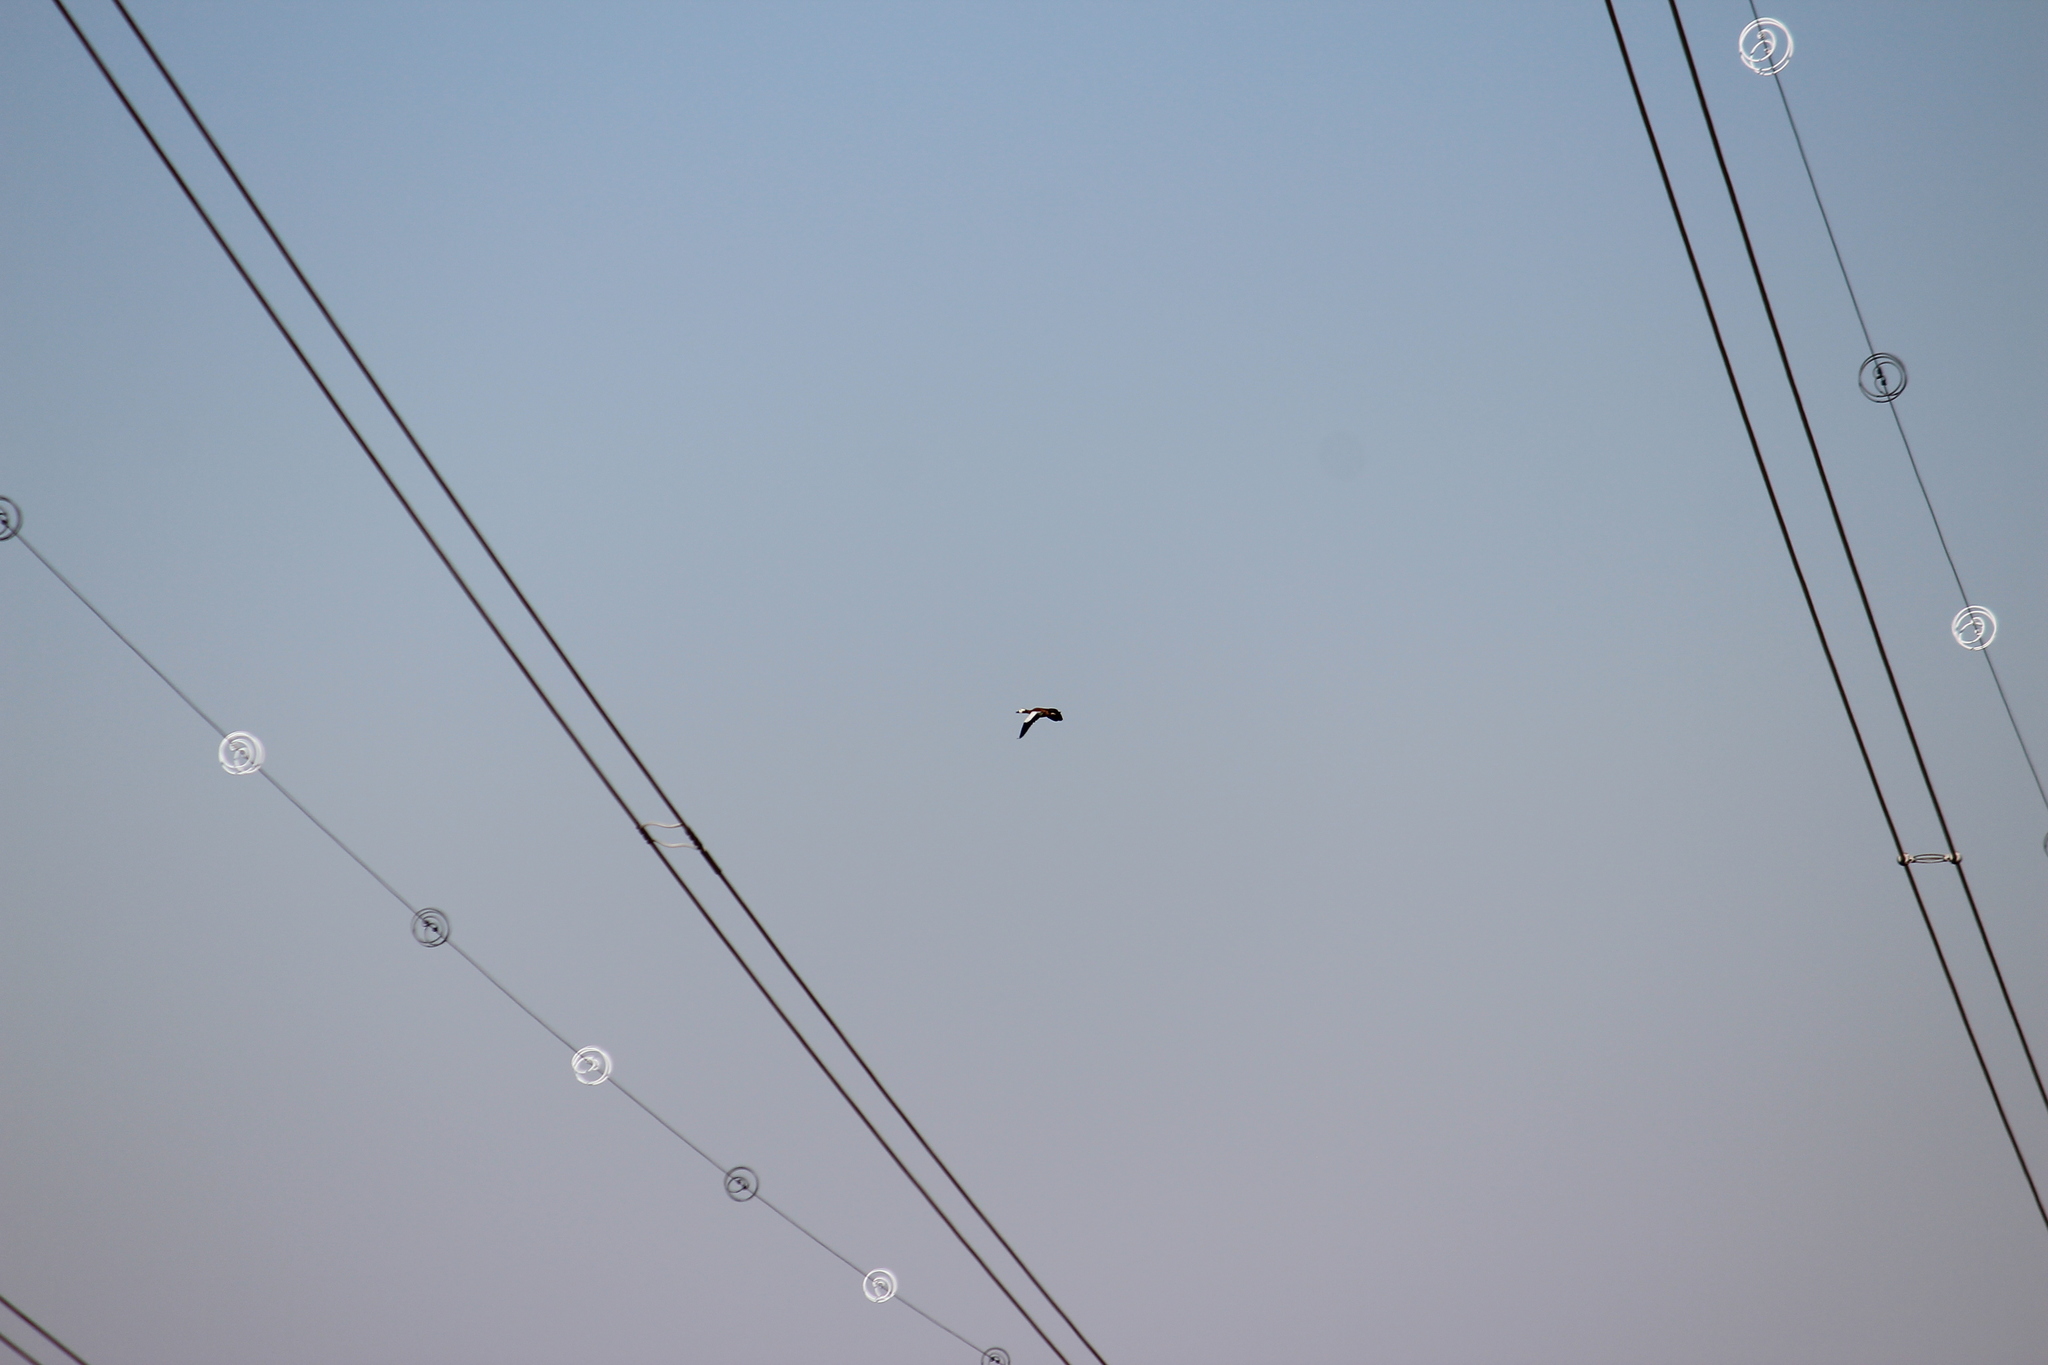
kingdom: Animalia
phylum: Chordata
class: Aves
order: Anseriformes
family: Anatidae
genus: Tadorna
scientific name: Tadorna cana
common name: South african shelduck
